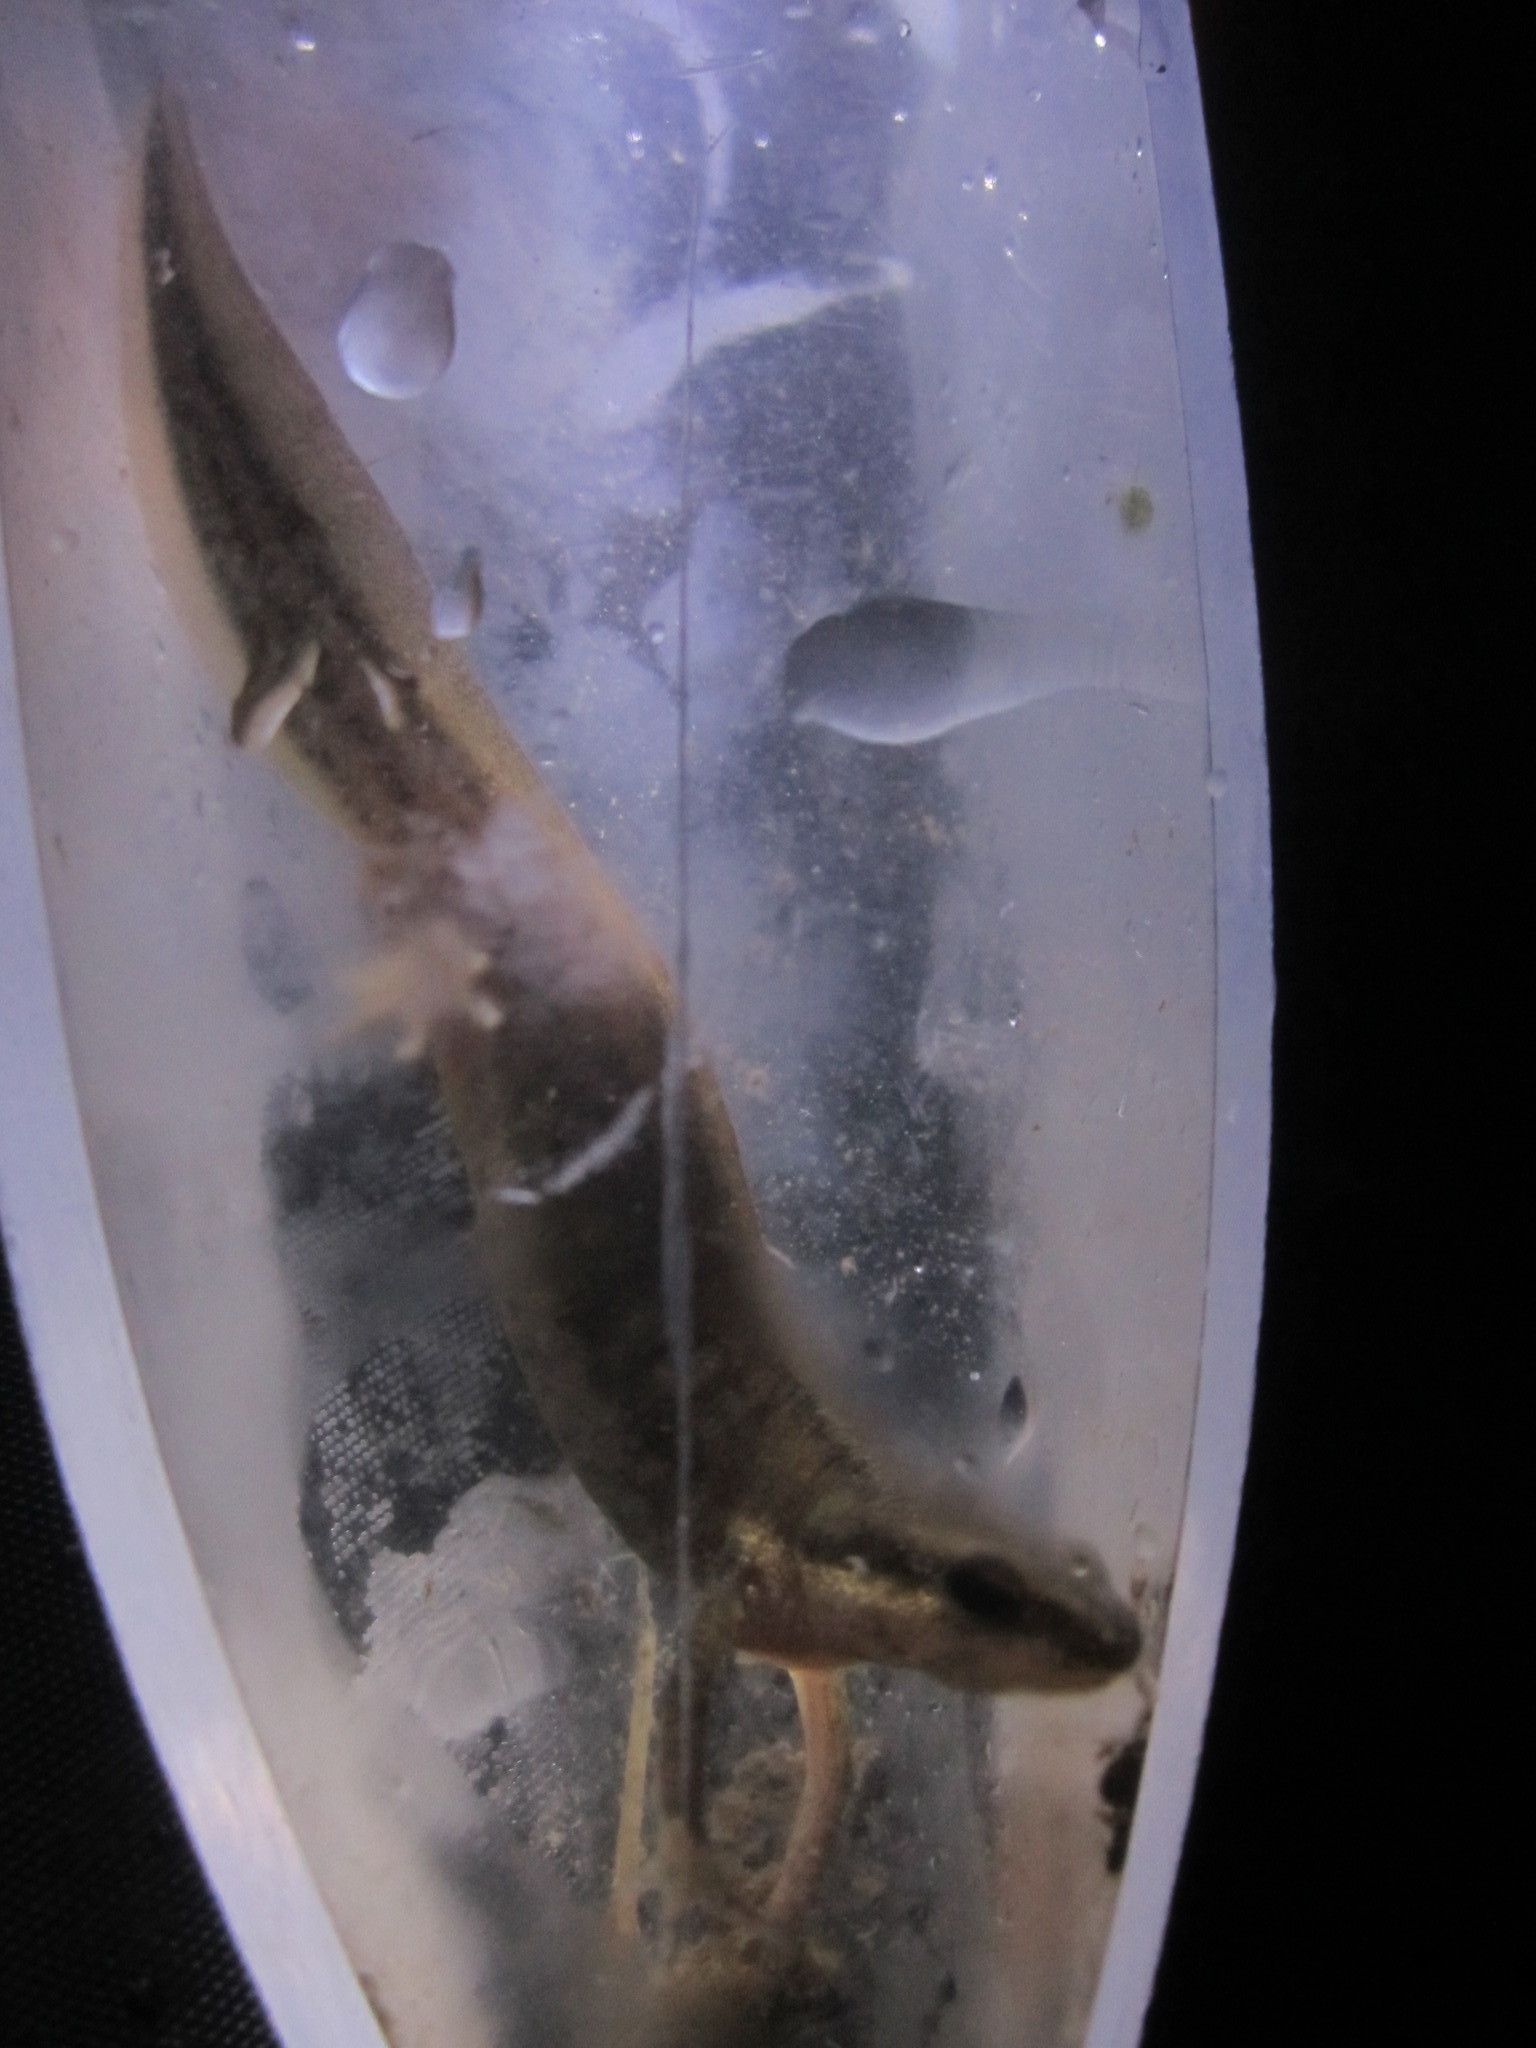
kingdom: Animalia
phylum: Chordata
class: Amphibia
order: Caudata
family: Salamandridae
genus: Lissotriton
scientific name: Lissotriton helveticus
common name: Palmate newt
